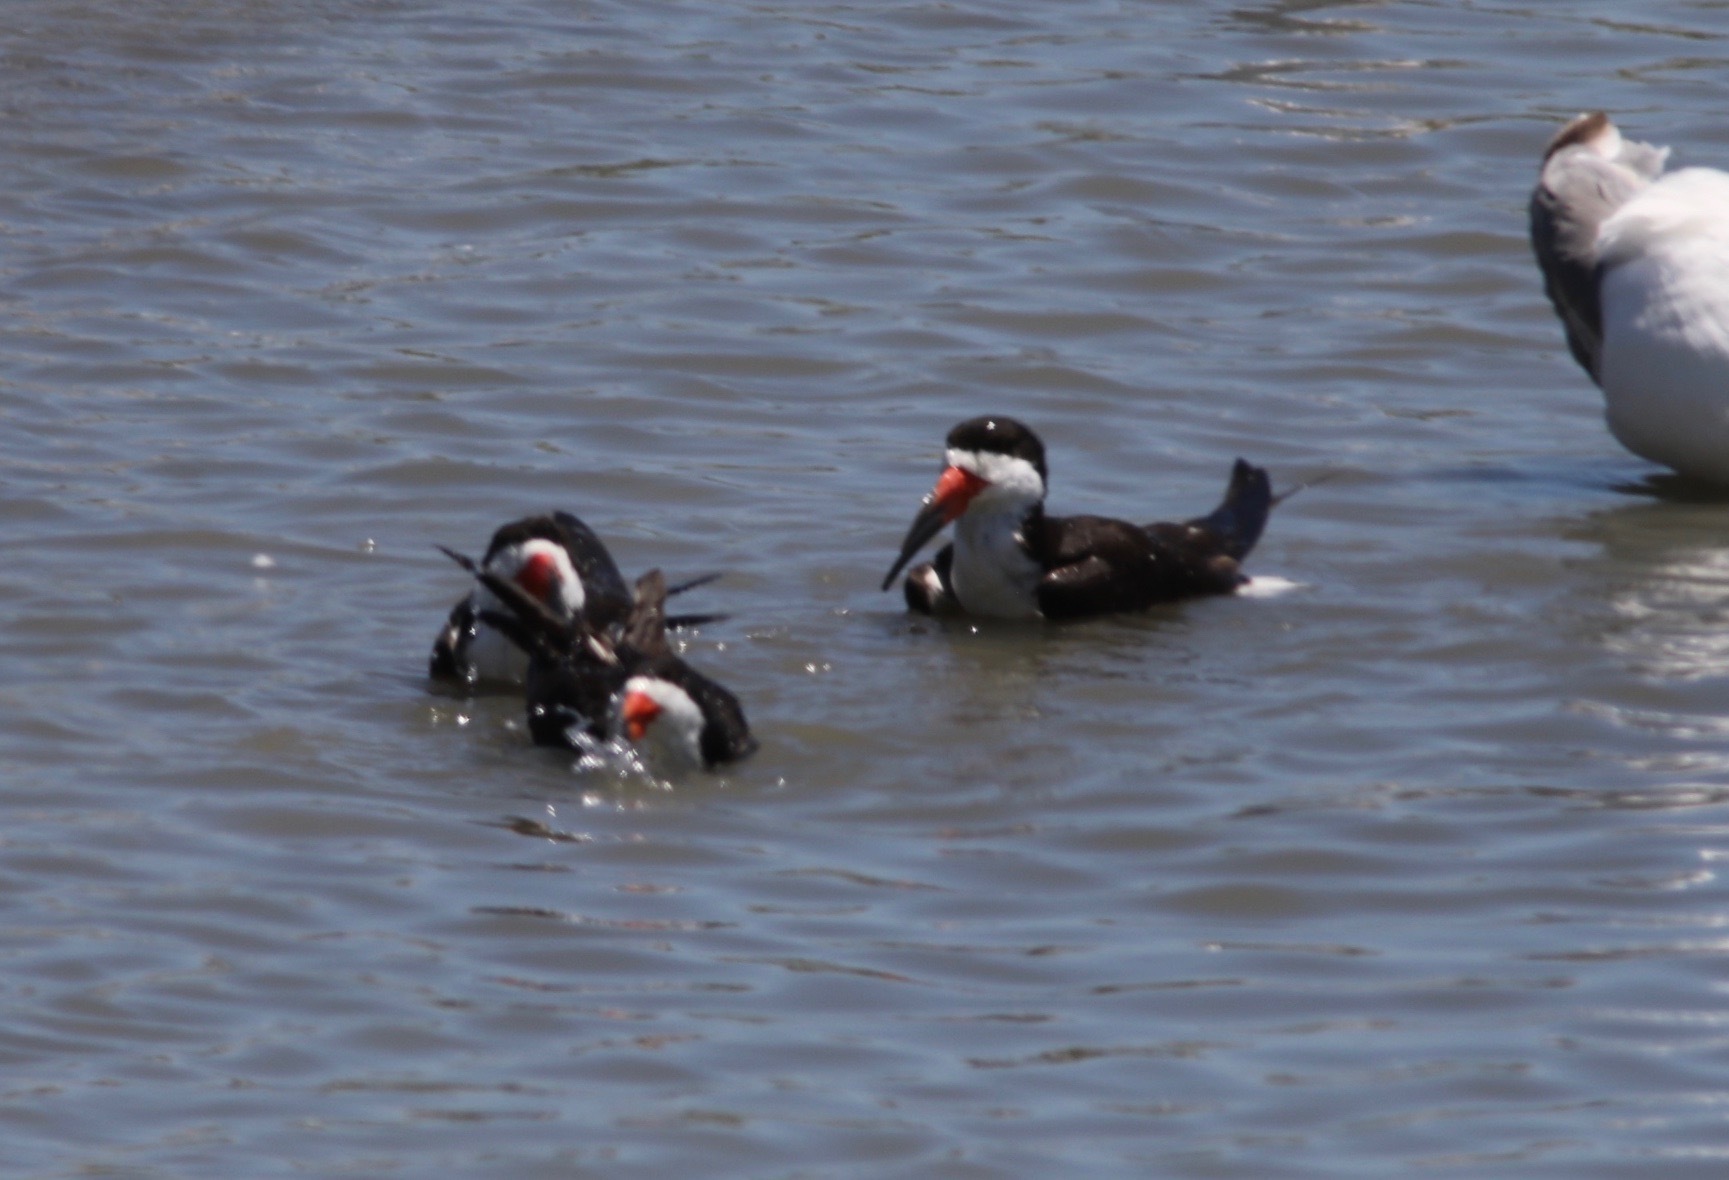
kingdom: Animalia
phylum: Chordata
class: Aves
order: Charadriiformes
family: Laridae
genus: Rynchops
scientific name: Rynchops niger
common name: Black skimmer
